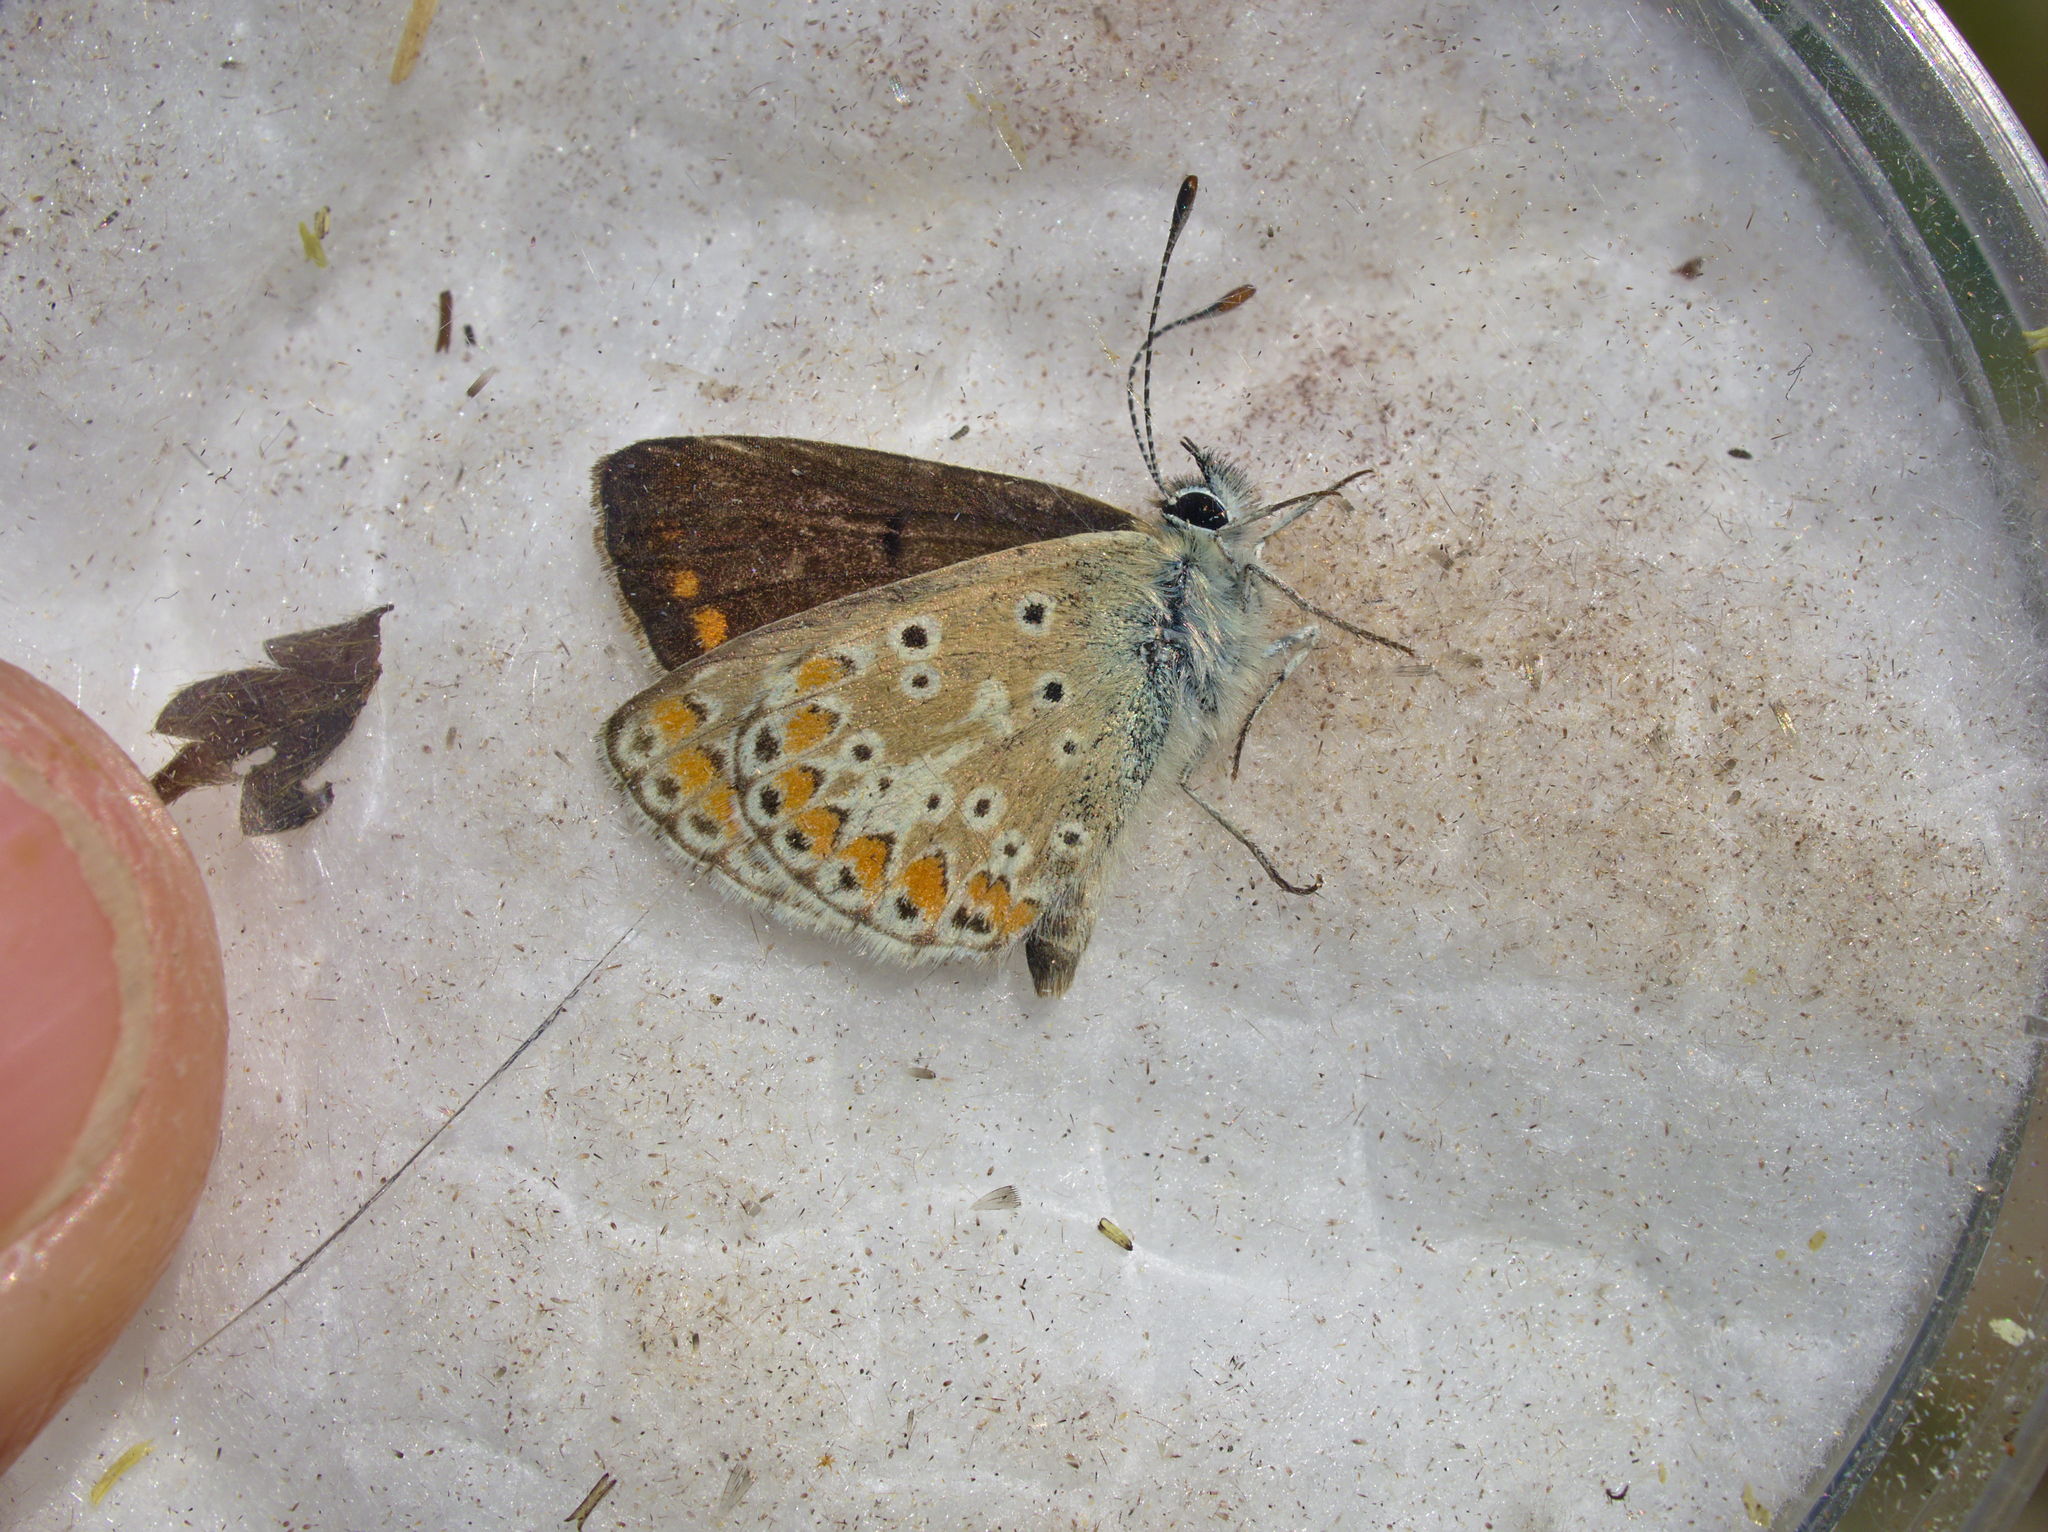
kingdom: Animalia
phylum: Arthropoda
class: Insecta
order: Lepidoptera
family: Lycaenidae
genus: Aricia
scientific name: Aricia agestis
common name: Brown argus
